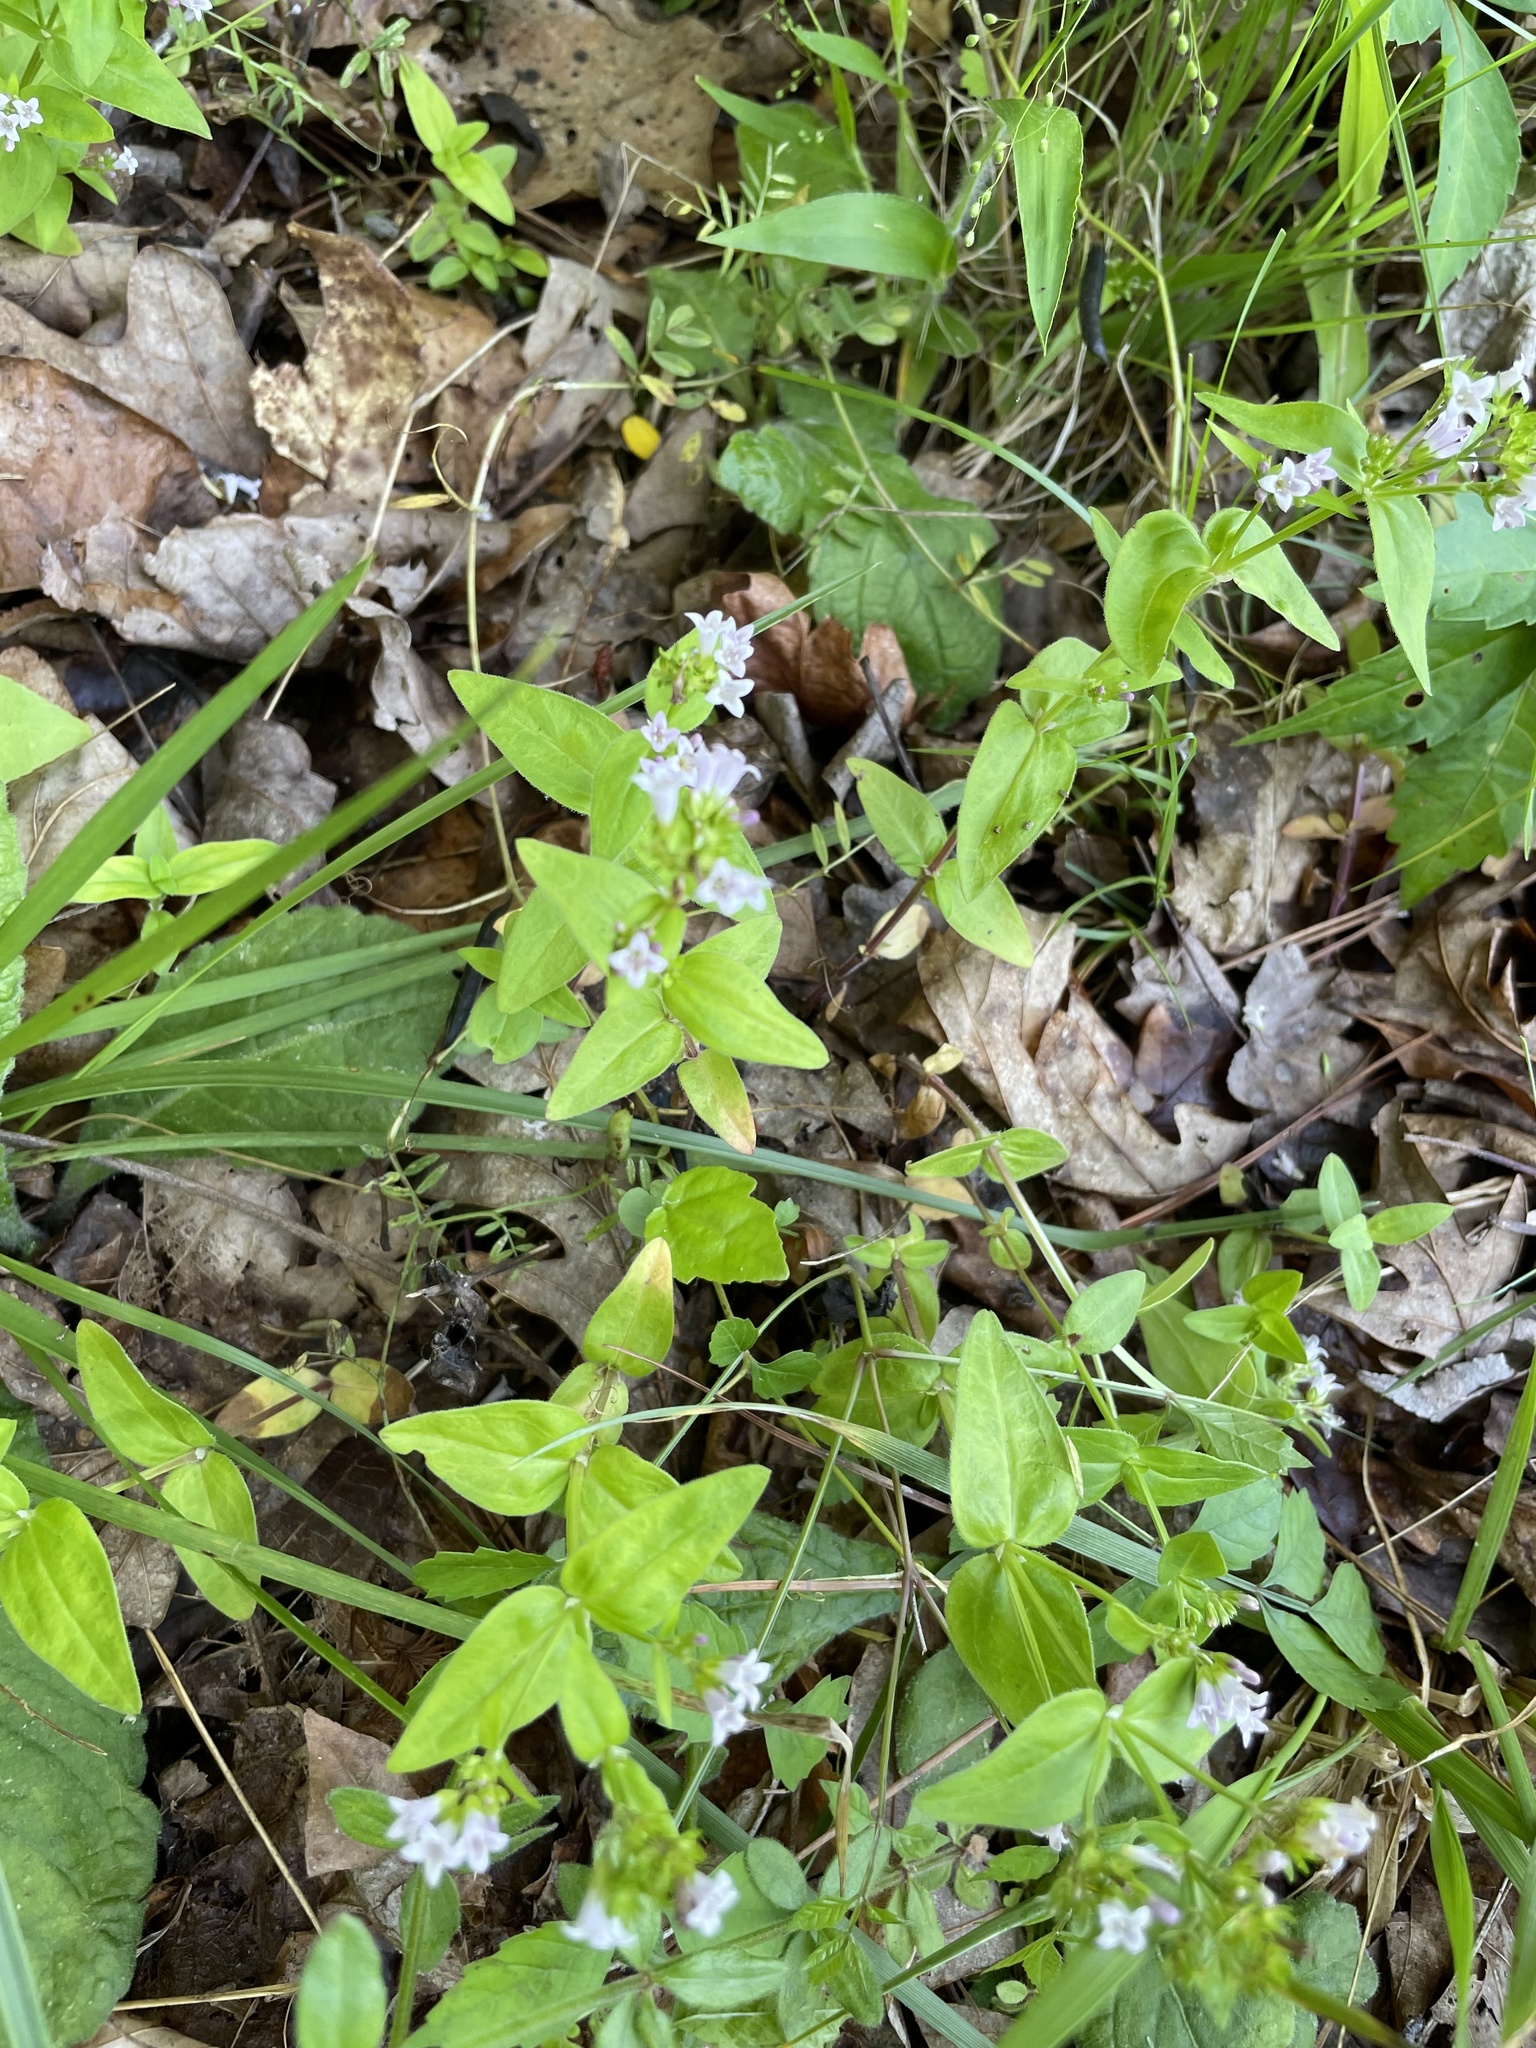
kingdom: Plantae
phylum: Tracheophyta
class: Magnoliopsida
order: Gentianales
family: Rubiaceae
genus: Houstonia
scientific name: Houstonia purpurea
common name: Summer bluet
